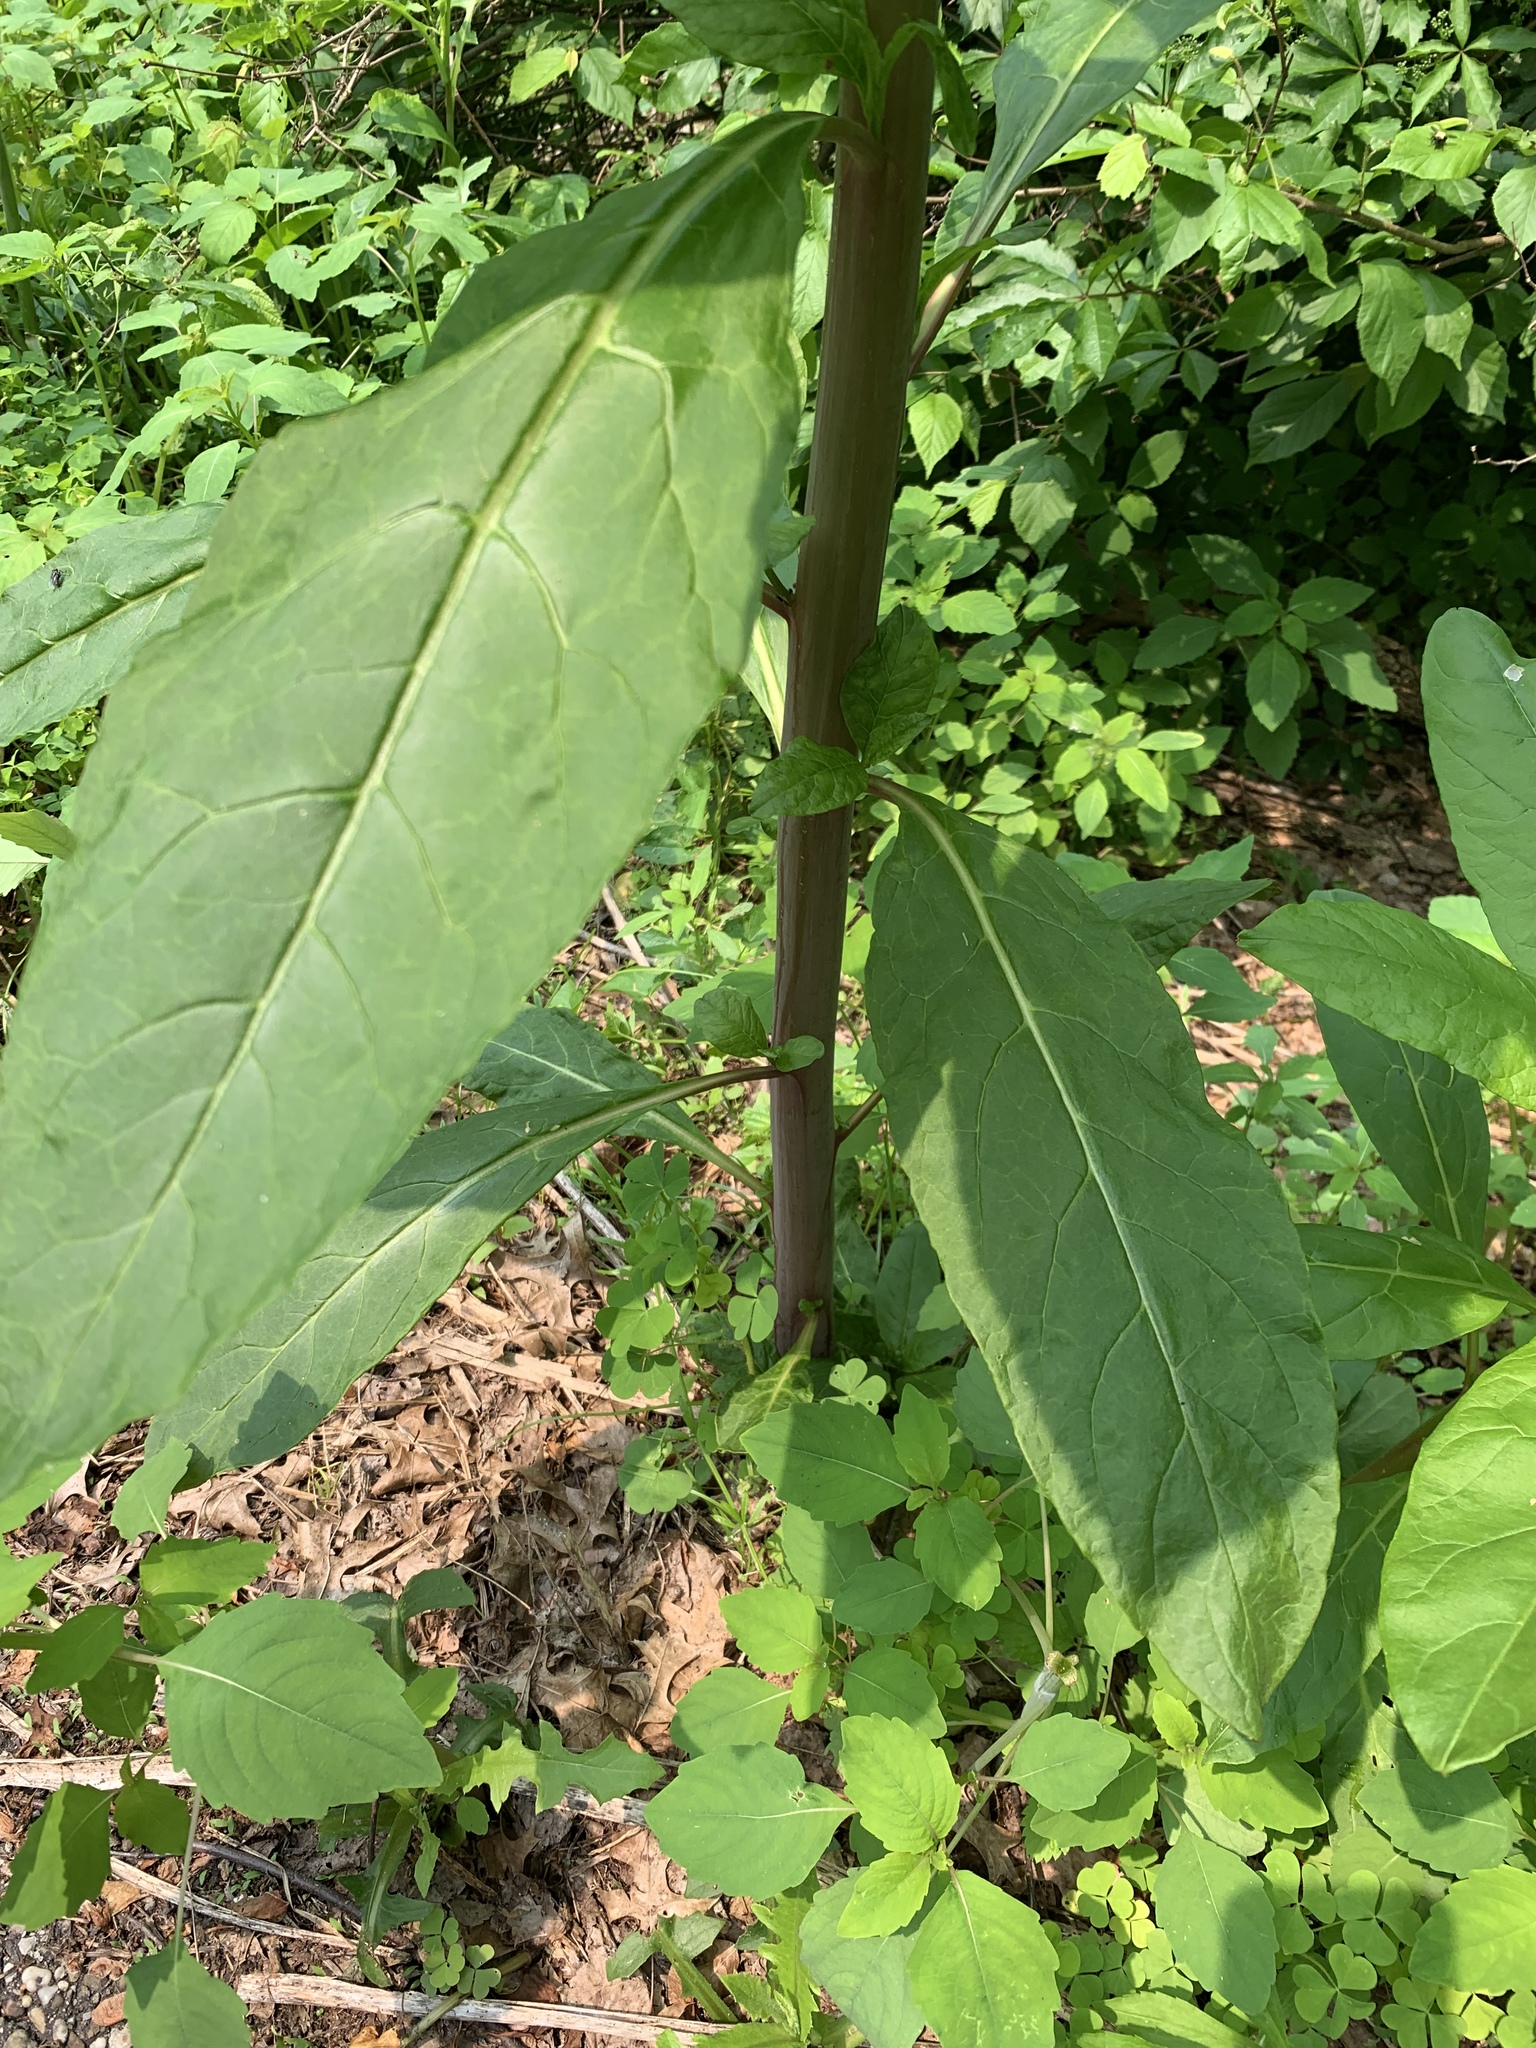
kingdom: Plantae
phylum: Tracheophyta
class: Magnoliopsida
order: Caryophyllales
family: Phytolaccaceae
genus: Phytolacca
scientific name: Phytolacca americana
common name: American pokeweed
